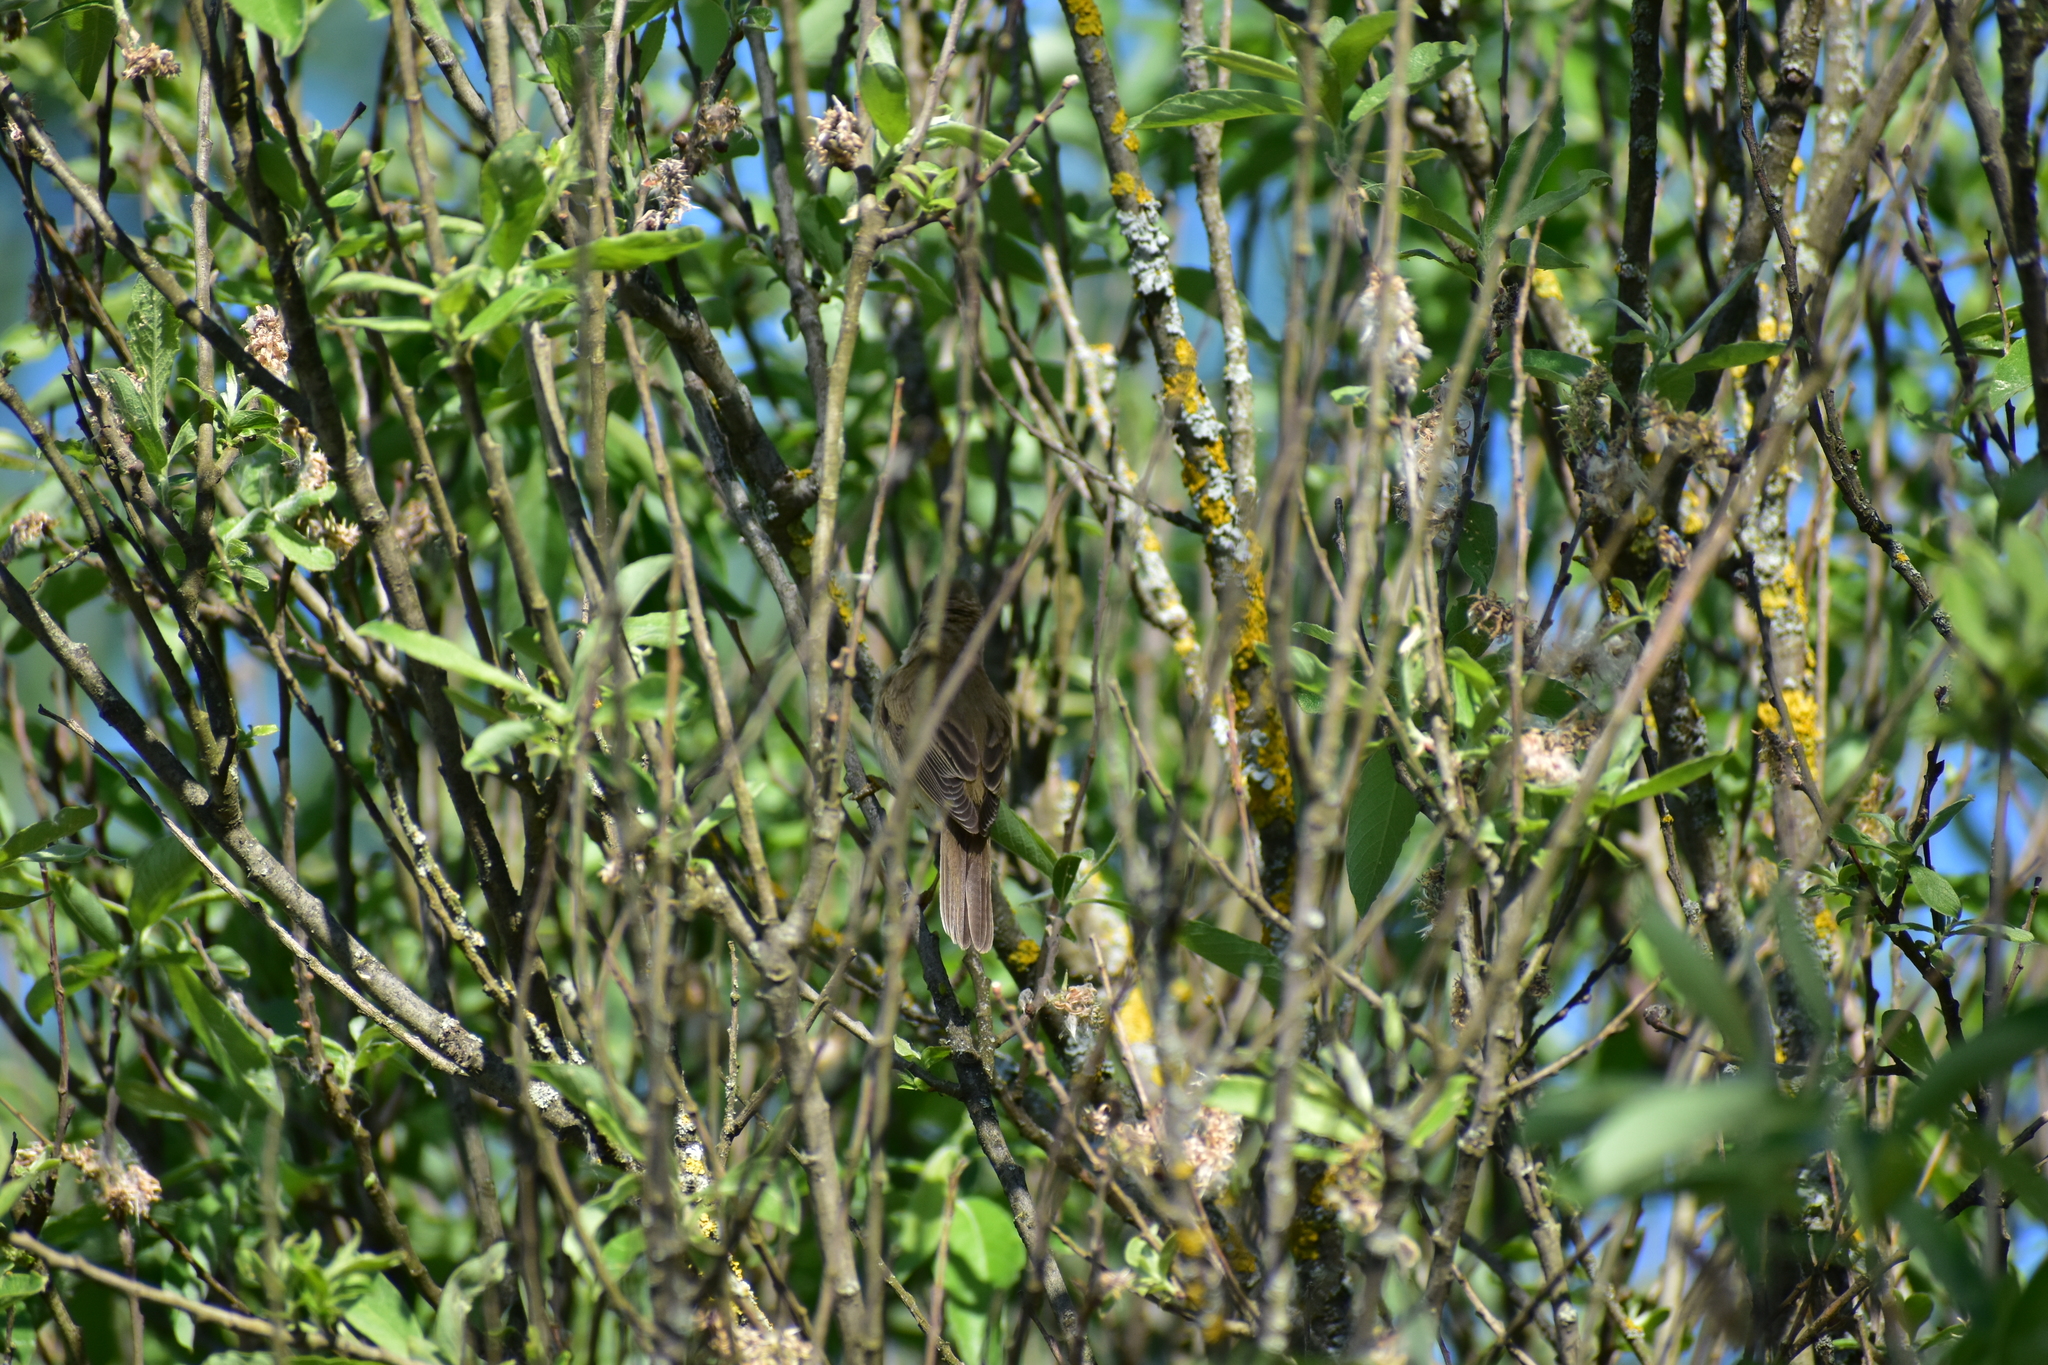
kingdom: Animalia
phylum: Chordata
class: Aves
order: Passeriformes
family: Acrocephalidae
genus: Acrocephalus
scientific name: Acrocephalus palustris
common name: Marsh warbler
